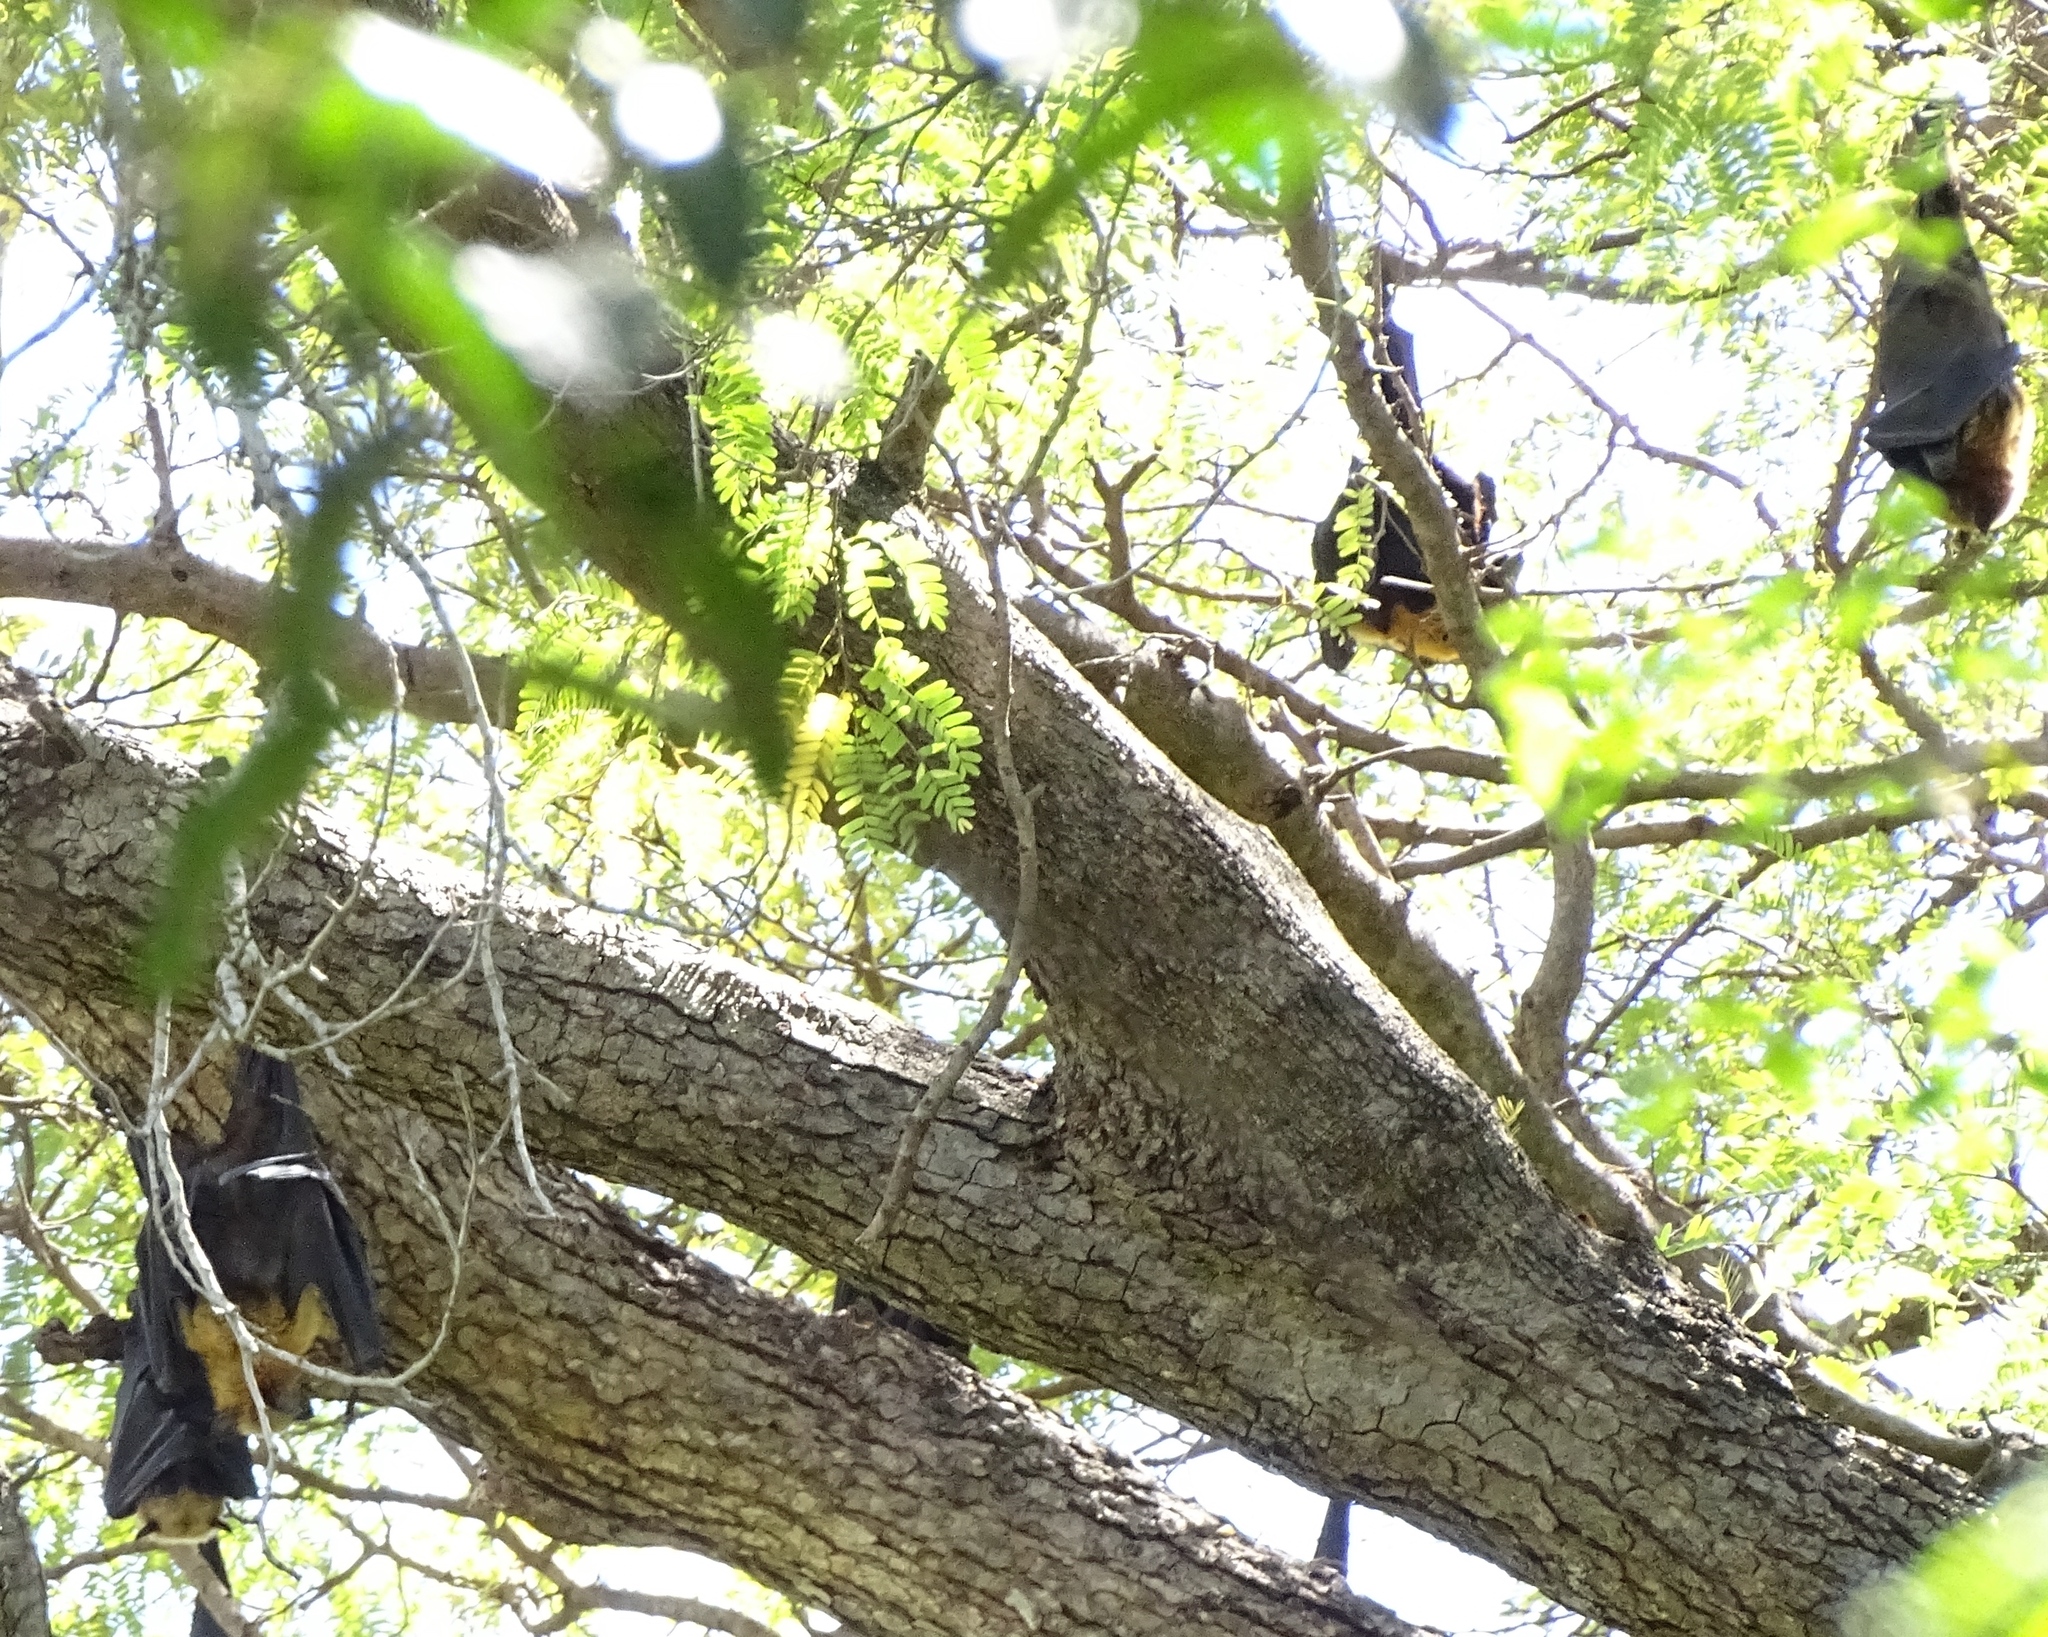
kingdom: Animalia
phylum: Chordata
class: Mammalia
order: Chiroptera
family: Pteropodidae
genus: Pteropus
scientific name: Pteropus rufus
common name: Madagascan flying fox
